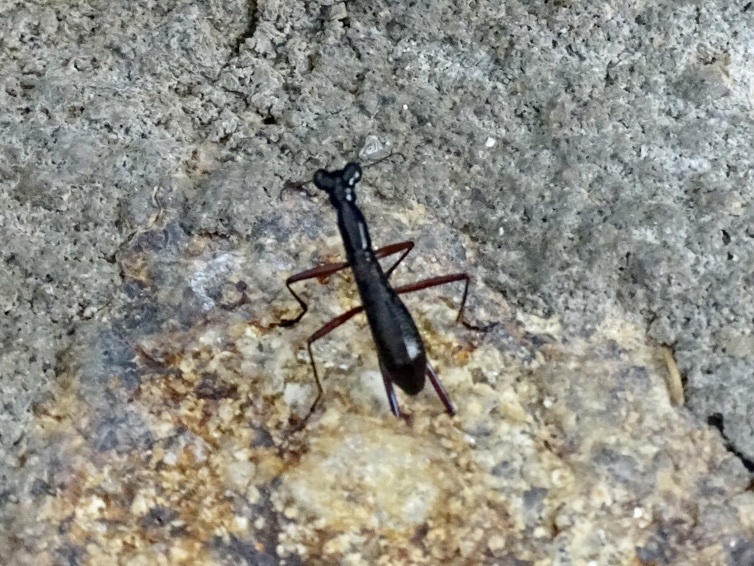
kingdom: Animalia
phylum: Arthropoda
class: Insecta
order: Coleoptera
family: Carabidae
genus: Tricondyla
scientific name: Tricondyla pulchripes
